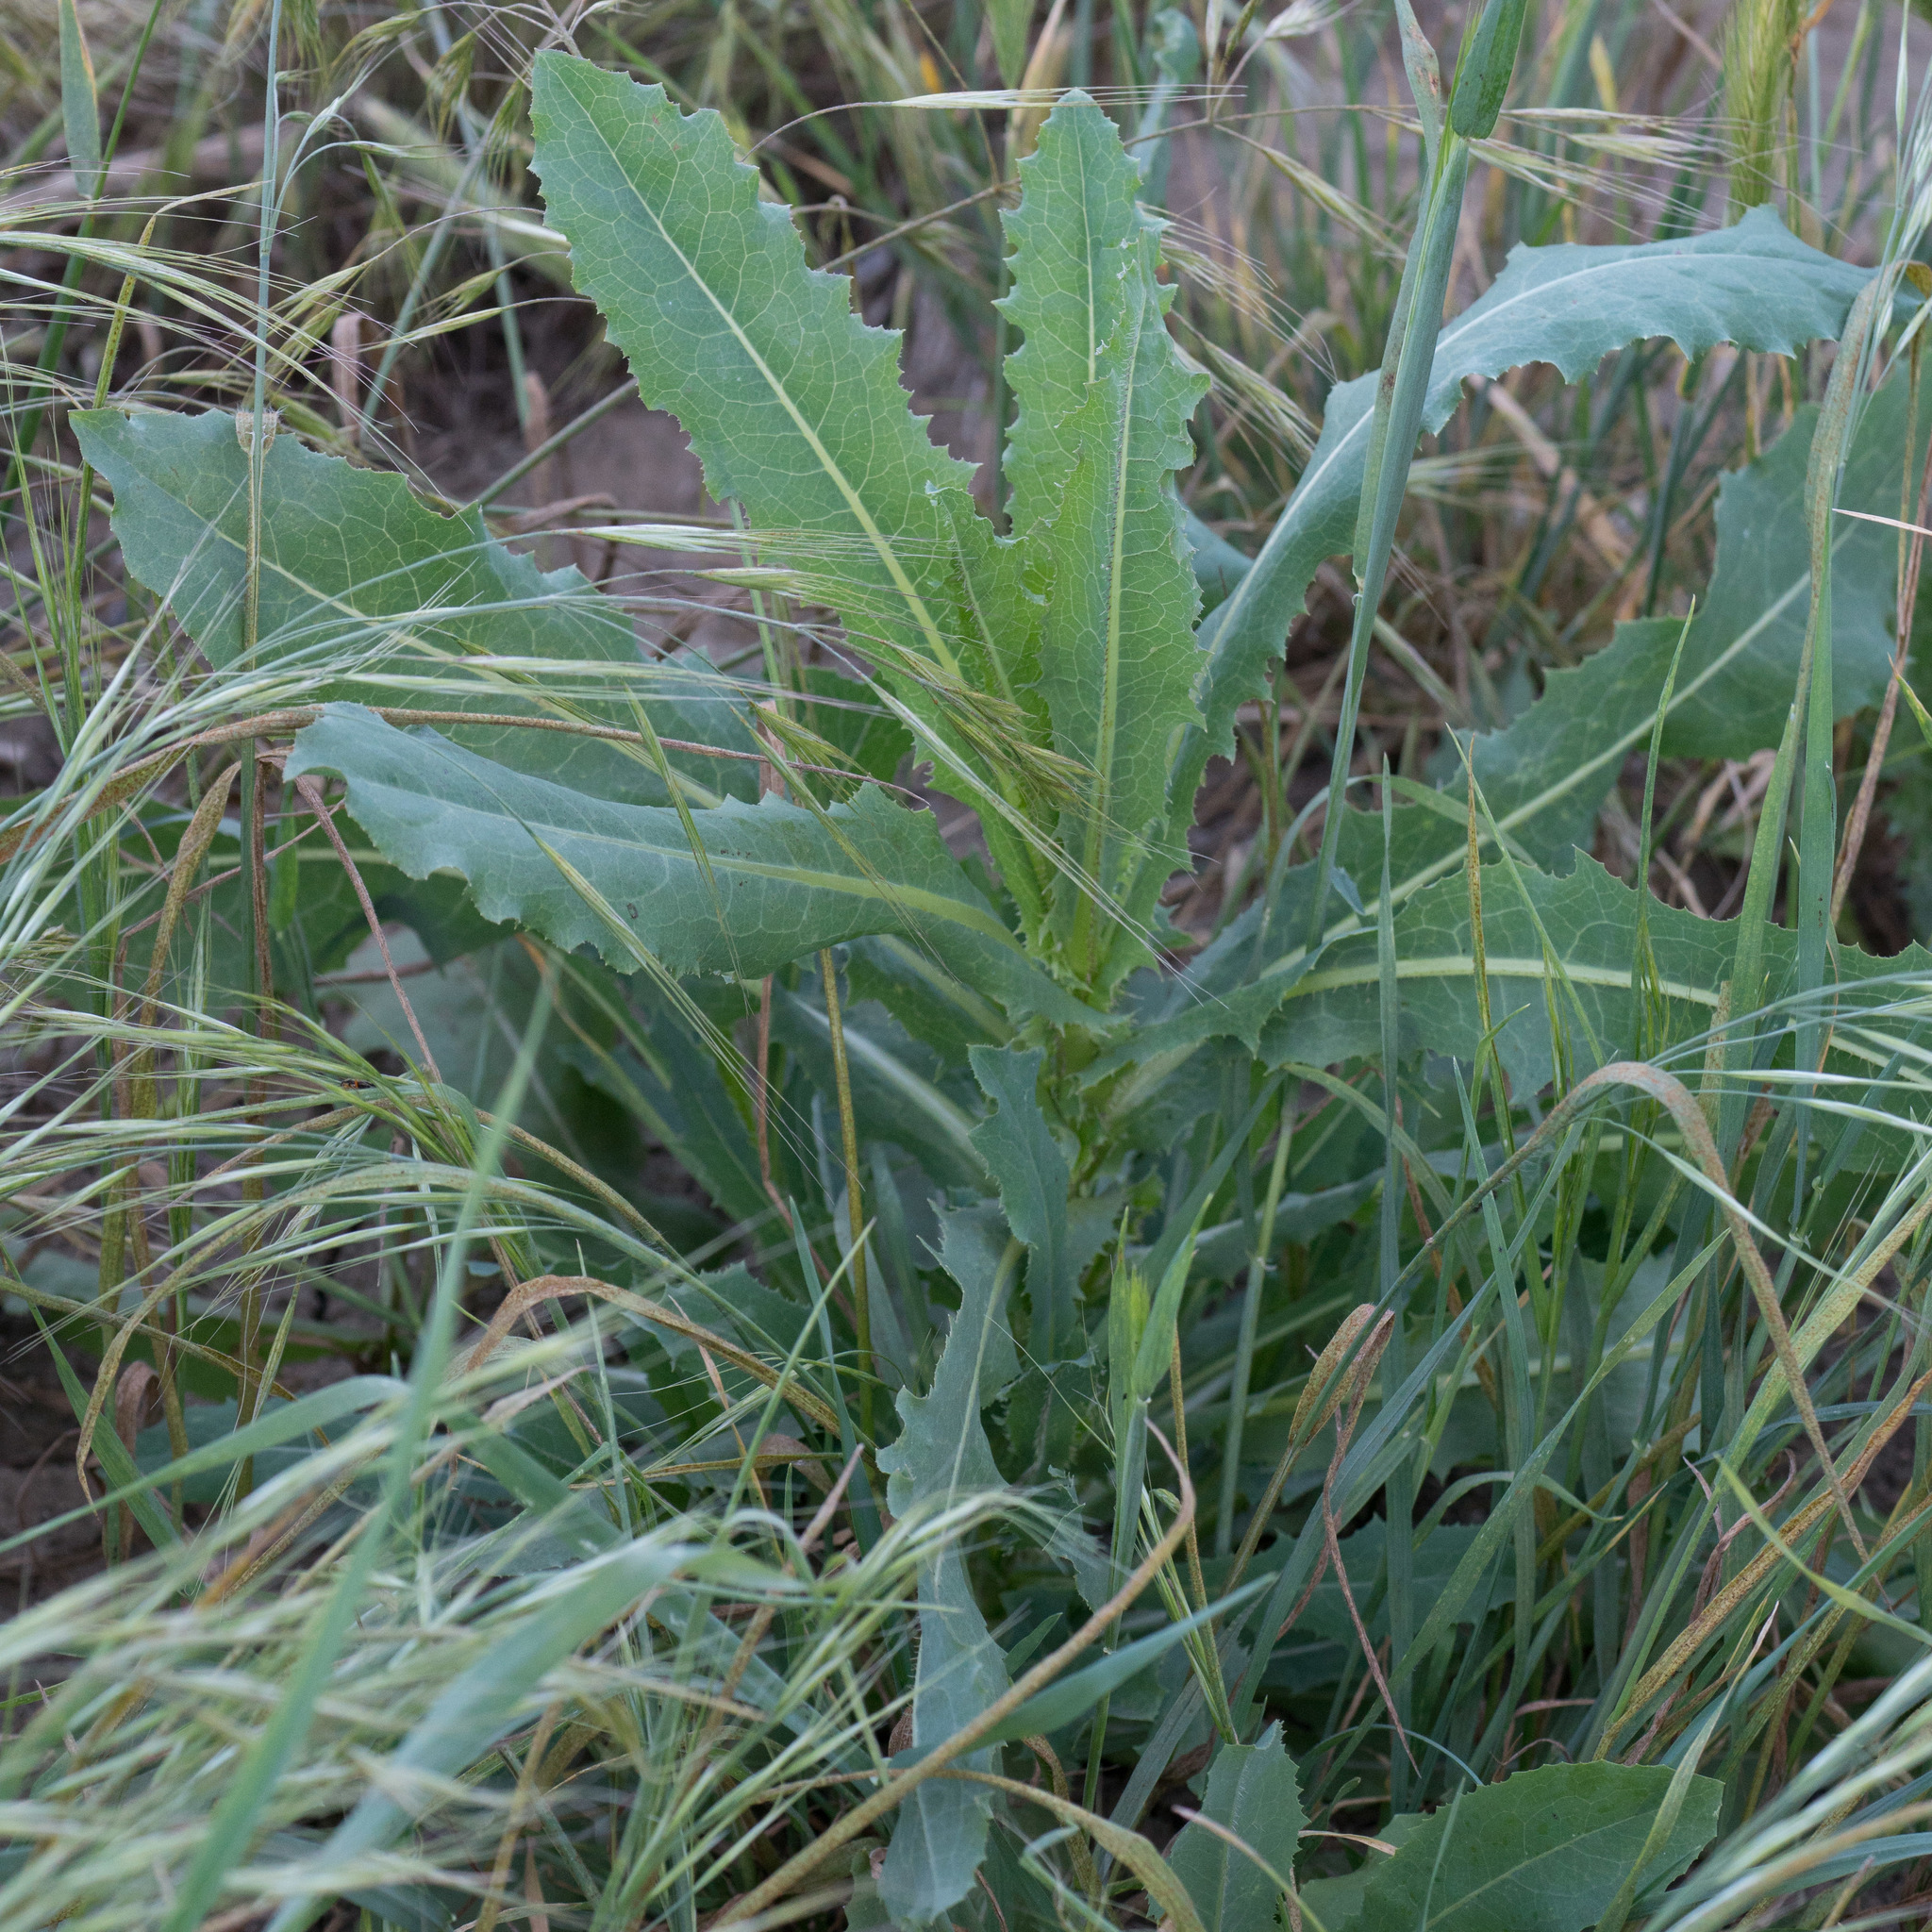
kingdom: Plantae
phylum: Tracheophyta
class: Magnoliopsida
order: Asterales
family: Asteraceae
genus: Lactuca
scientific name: Lactuca serriola
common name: Prickly lettuce
